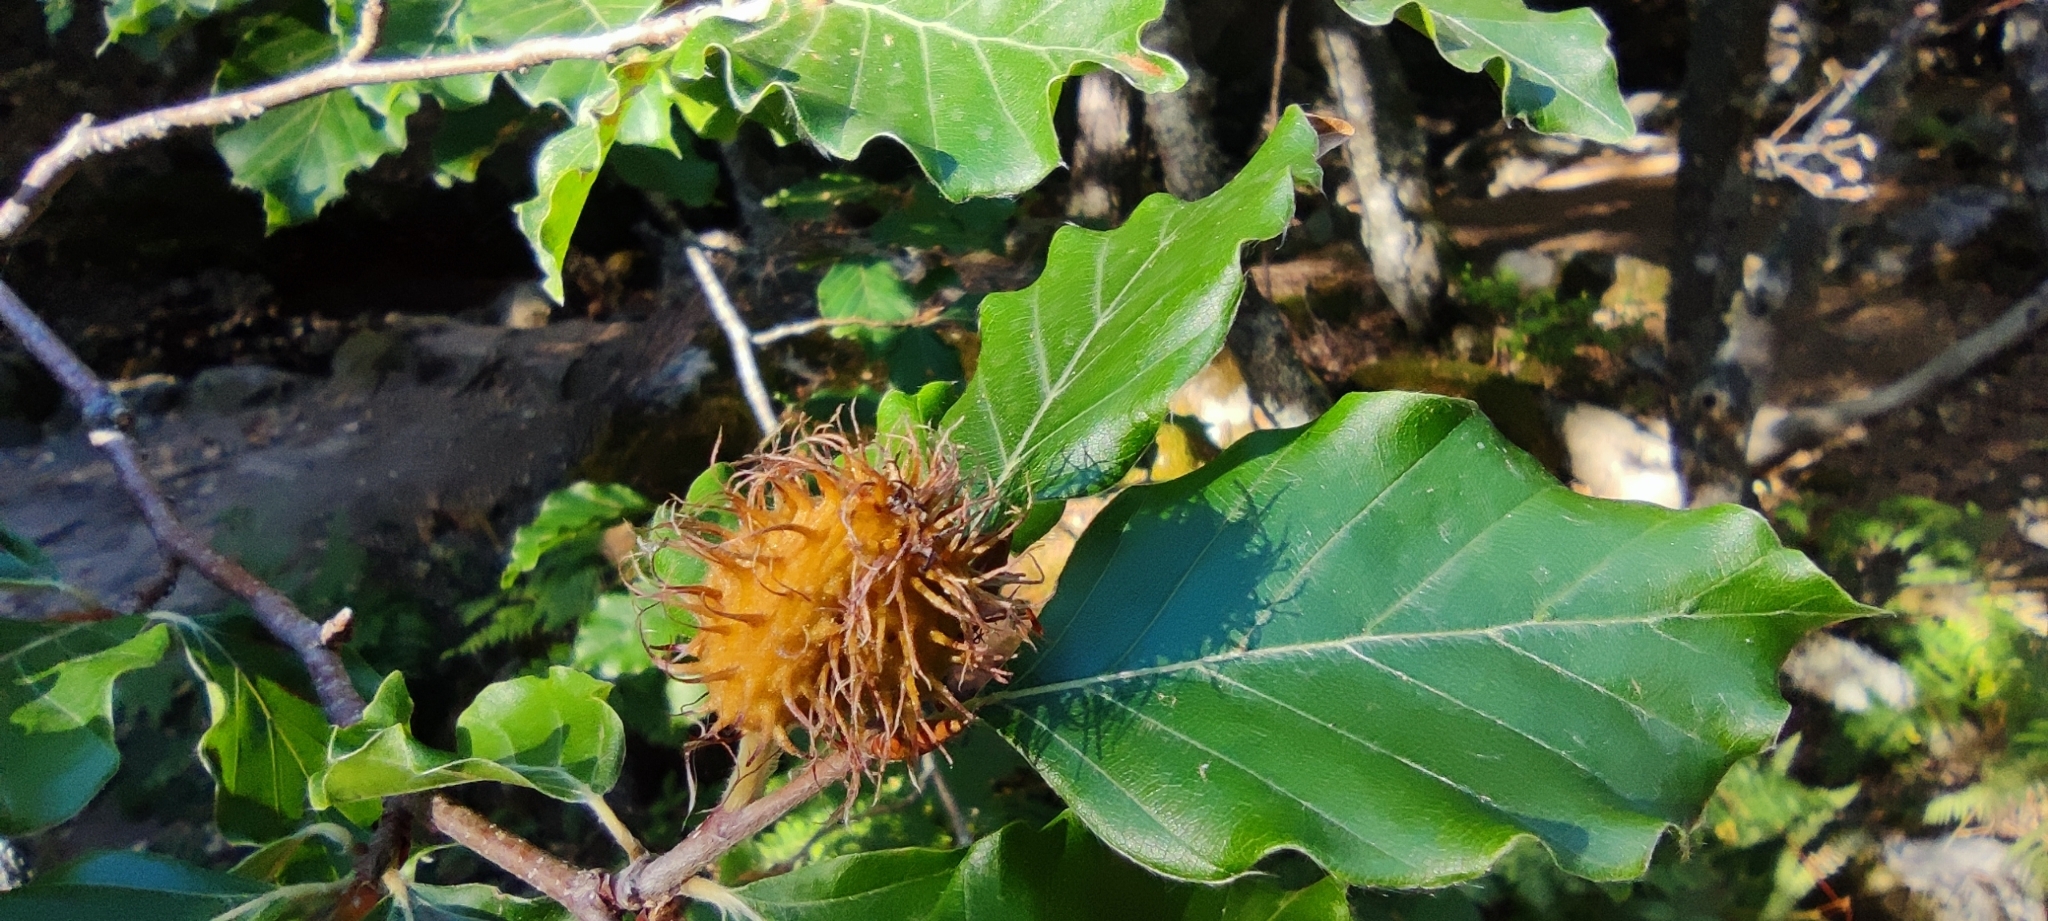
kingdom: Plantae
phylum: Tracheophyta
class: Magnoliopsida
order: Fagales
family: Fagaceae
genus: Fagus
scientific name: Fagus sylvatica
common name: Beech
